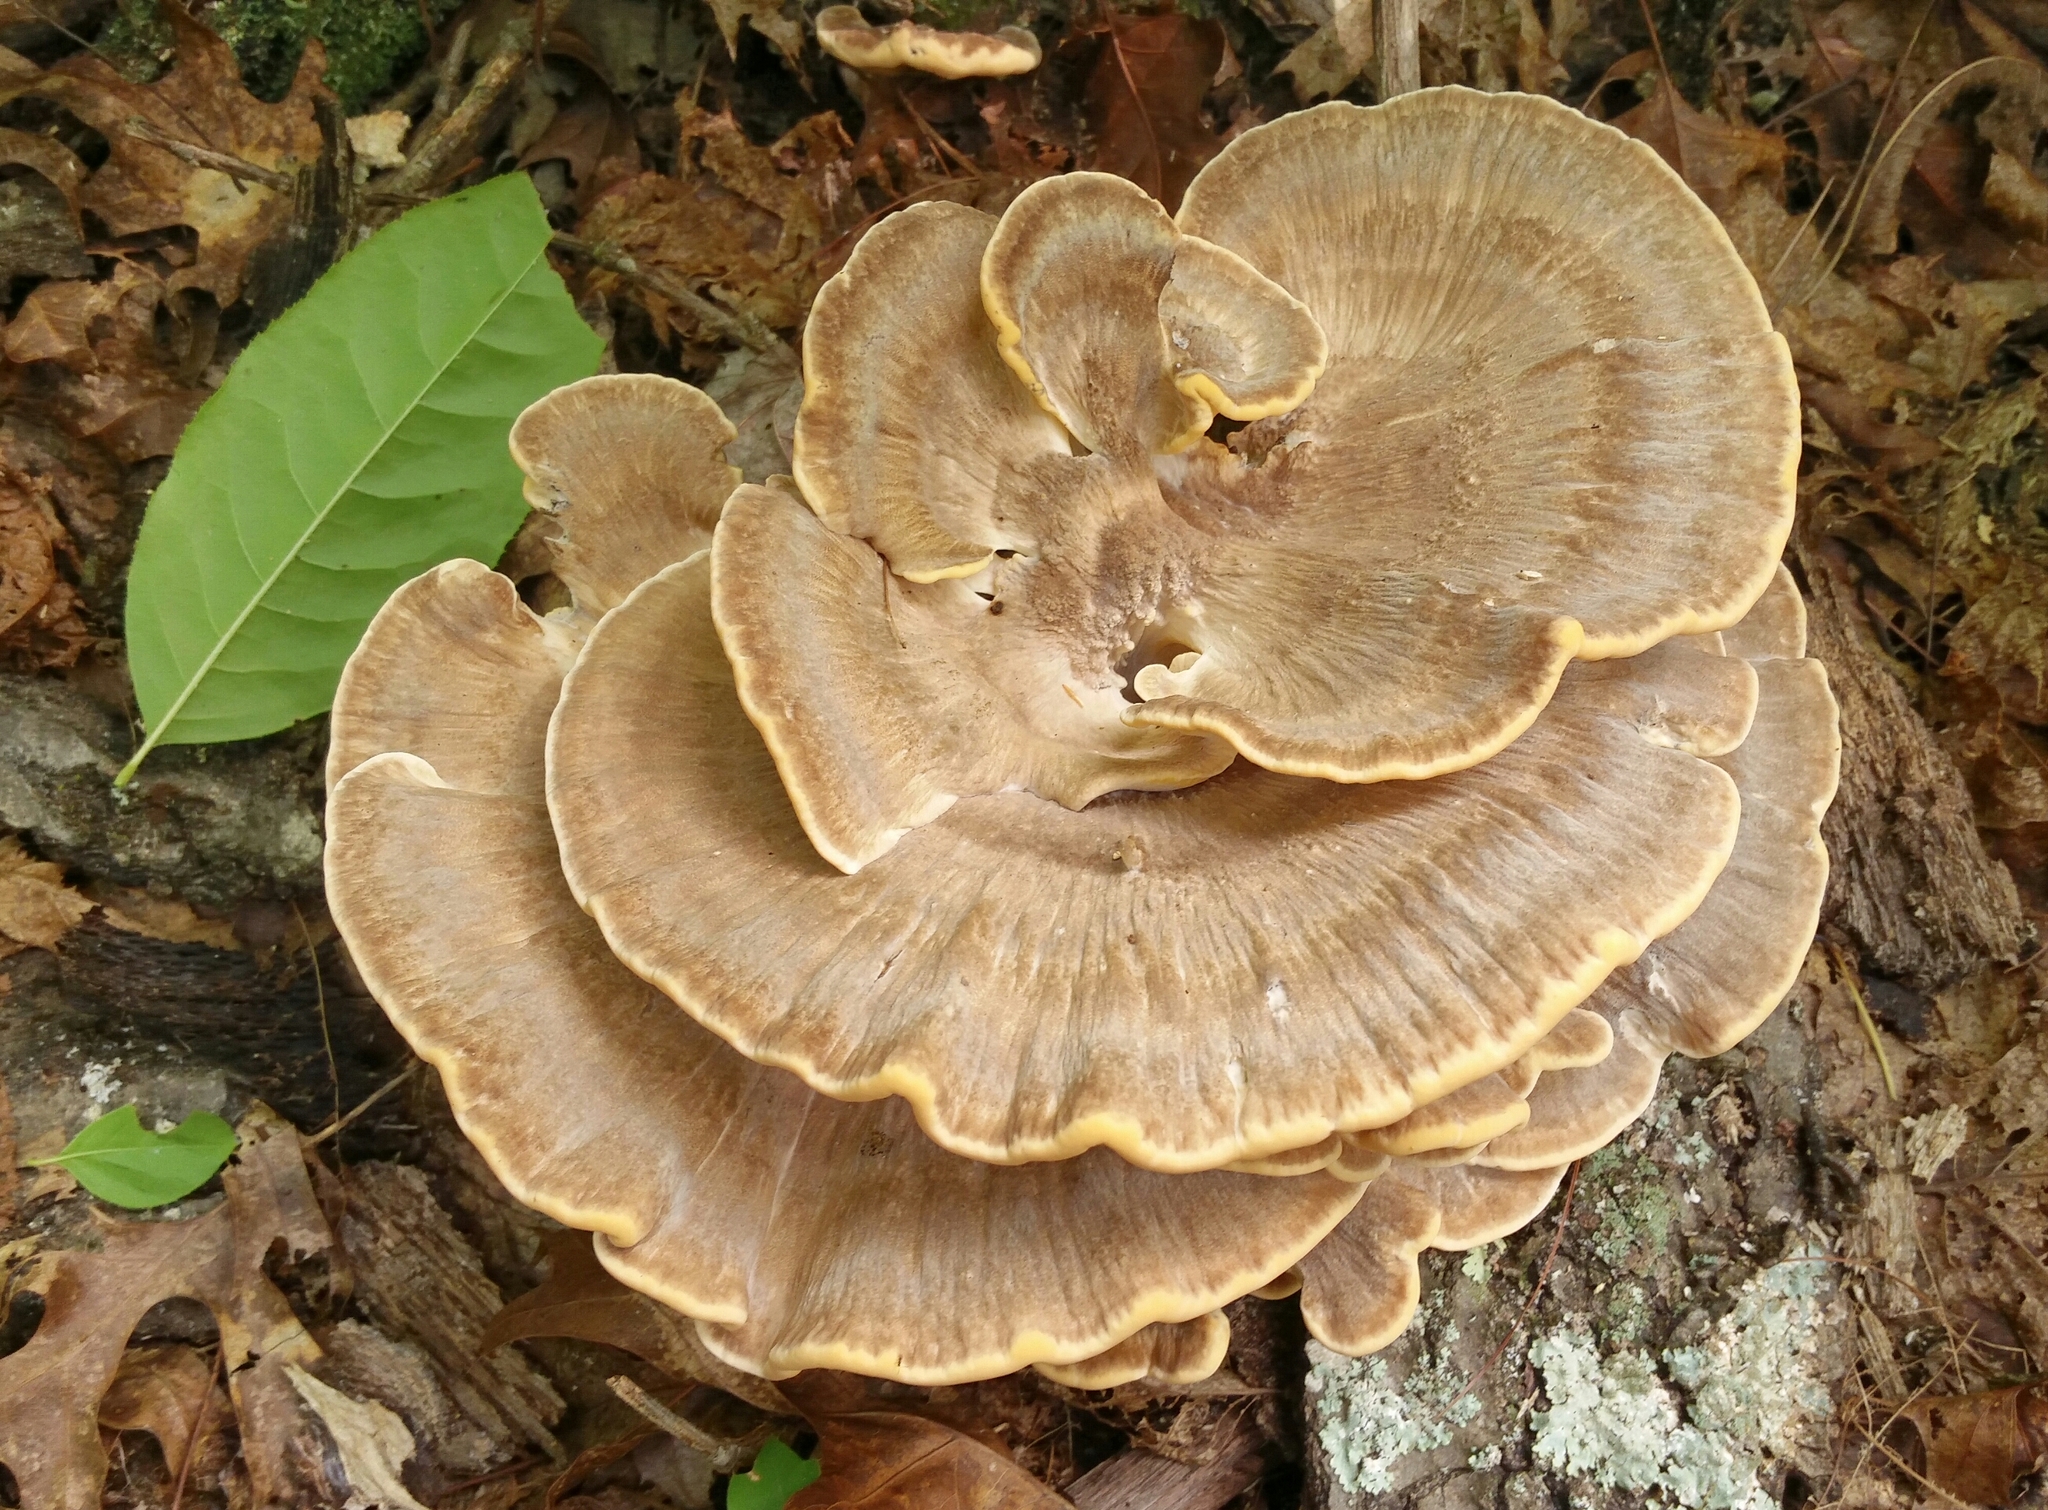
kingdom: Fungi
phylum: Basidiomycota
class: Agaricomycetes
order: Polyporales
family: Meripilaceae
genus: Meripilus
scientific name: Meripilus sumstinei
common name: Black-staining polypore
